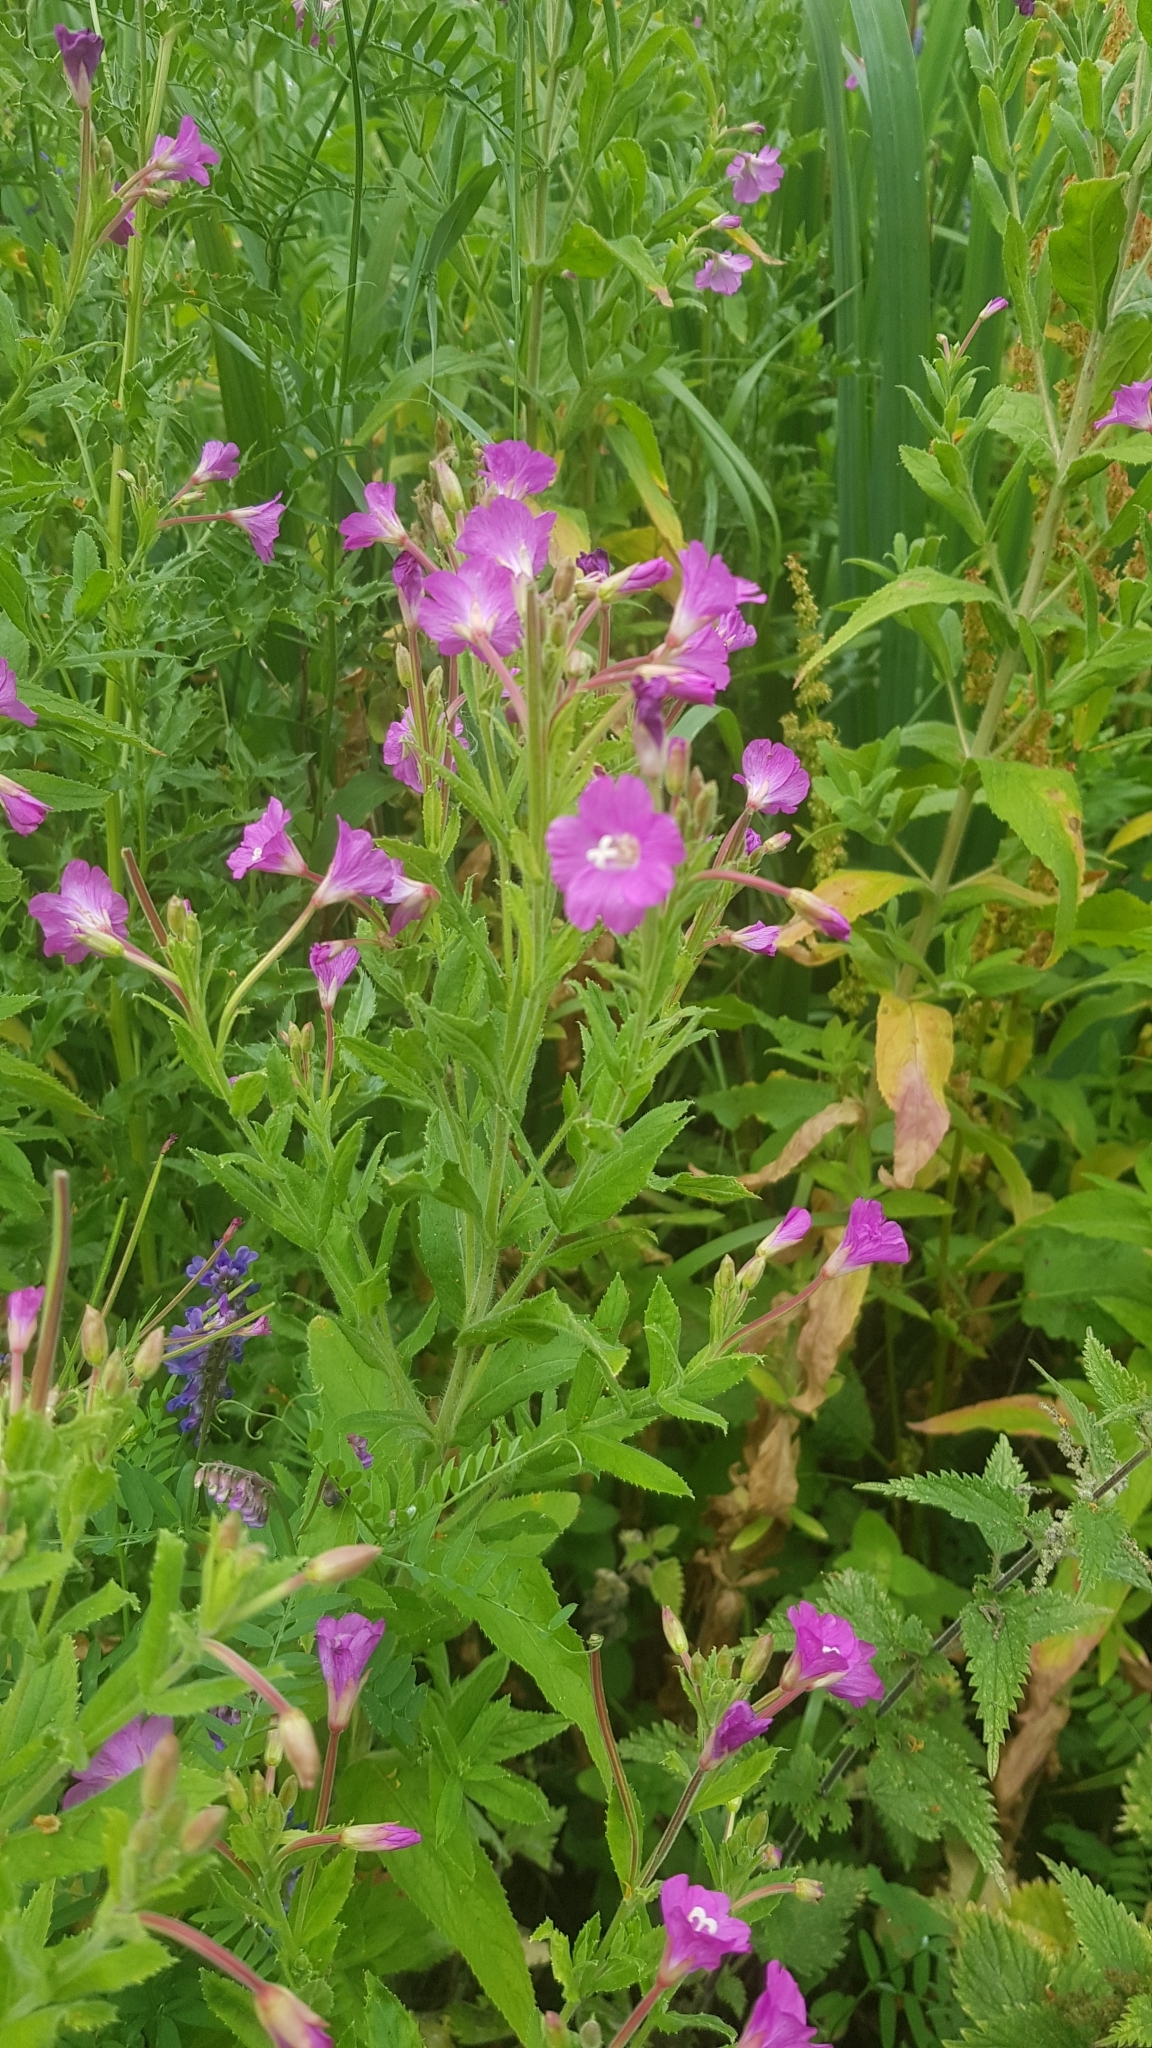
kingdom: Plantae
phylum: Tracheophyta
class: Magnoliopsida
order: Myrtales
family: Onagraceae
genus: Epilobium
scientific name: Epilobium hirsutum
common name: Great willowherb
